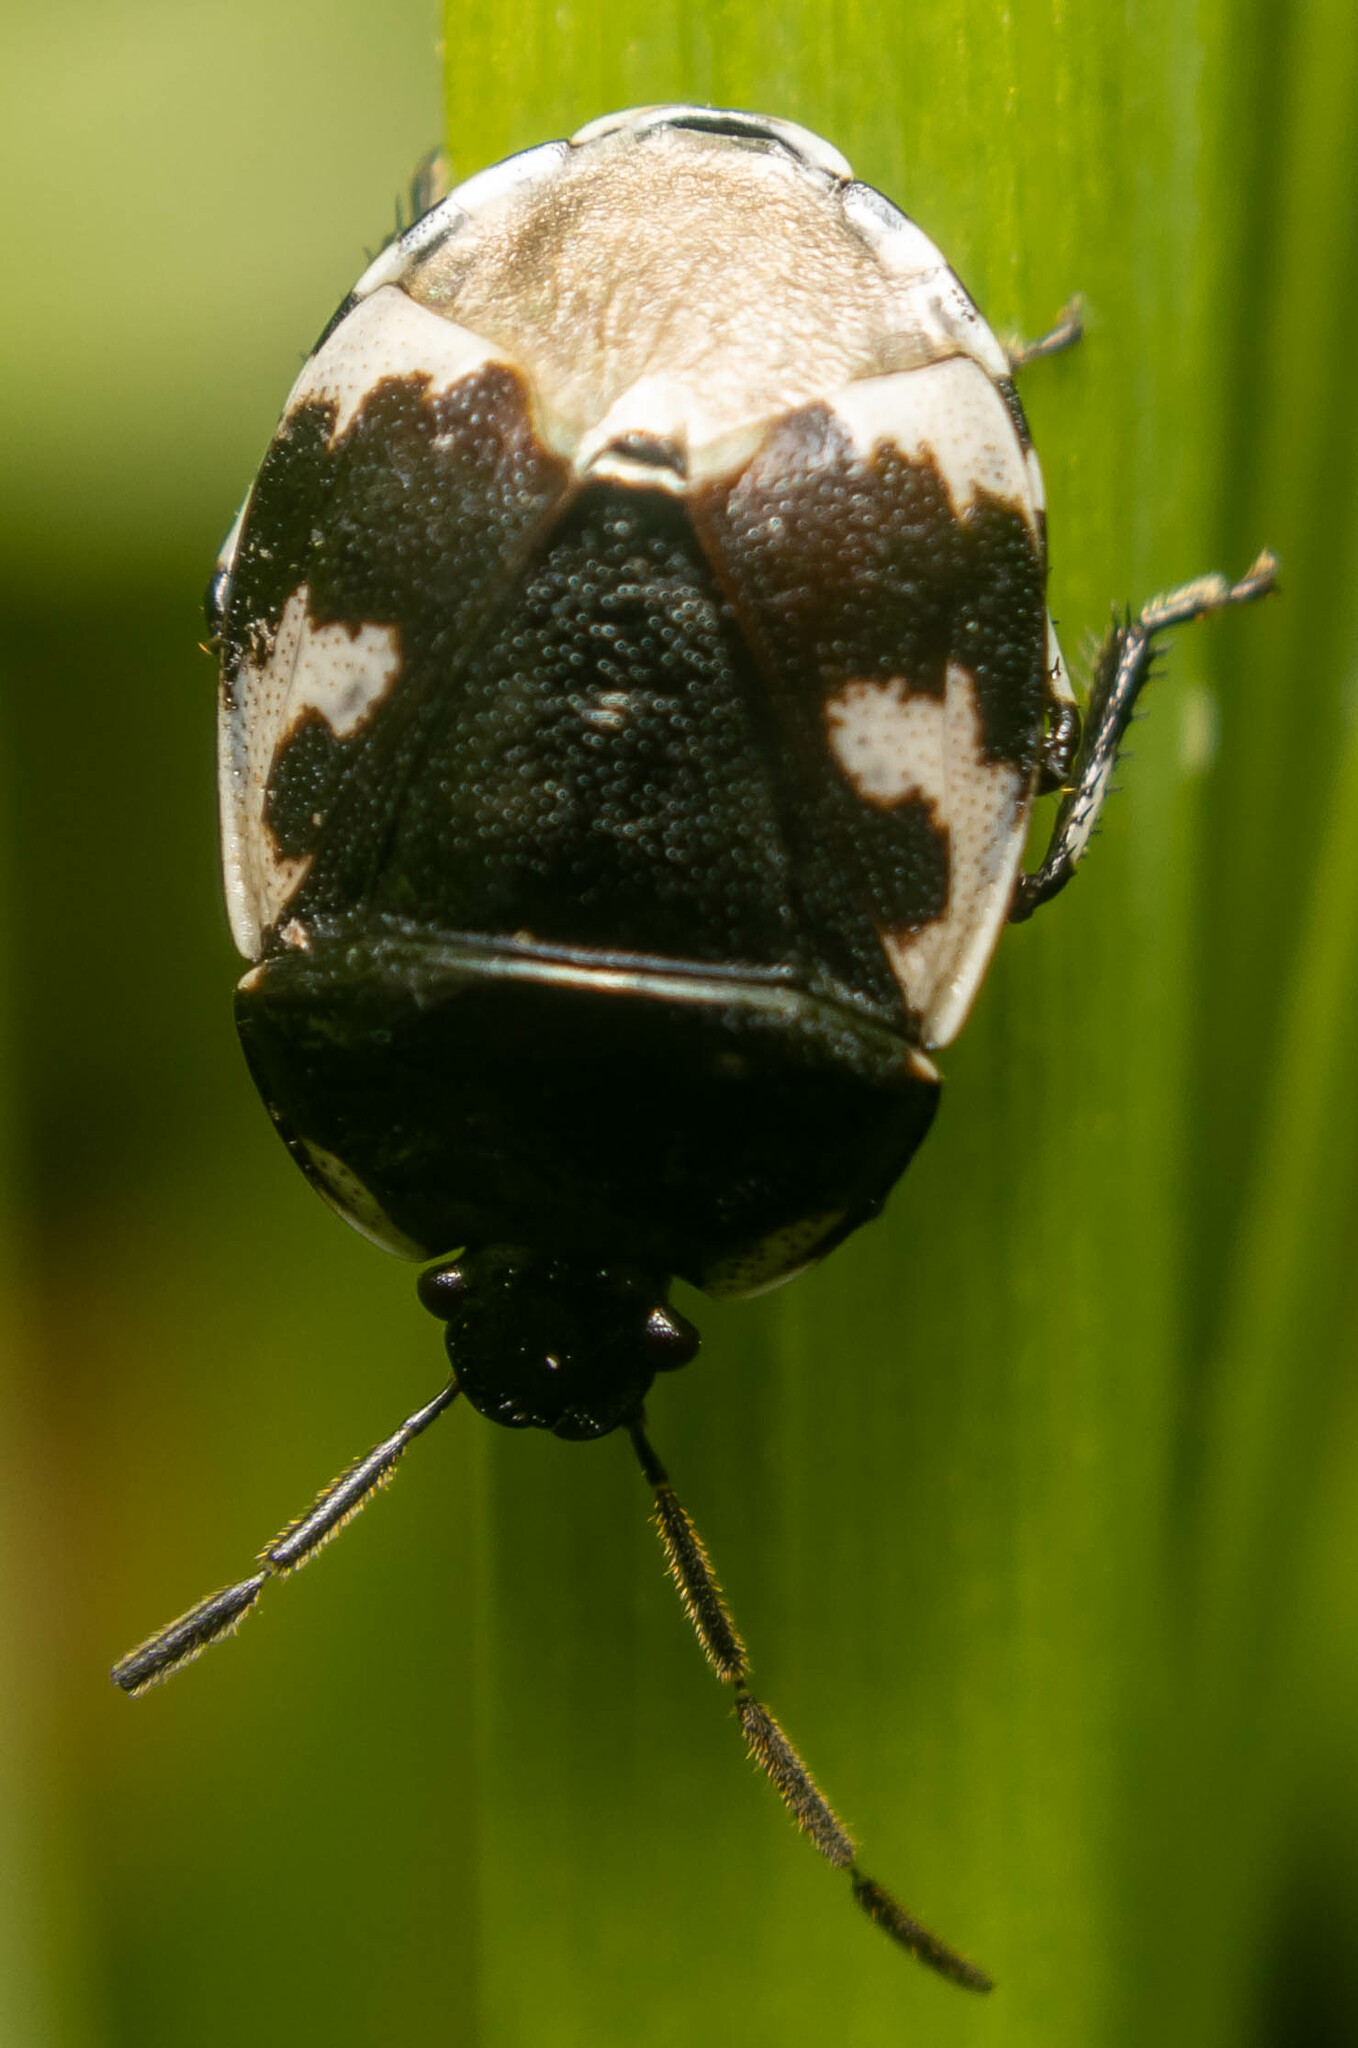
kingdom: Animalia
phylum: Arthropoda
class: Insecta
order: Hemiptera
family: Cydnidae
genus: Tritomegas
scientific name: Tritomegas bicolor
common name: Pied shieldbug
